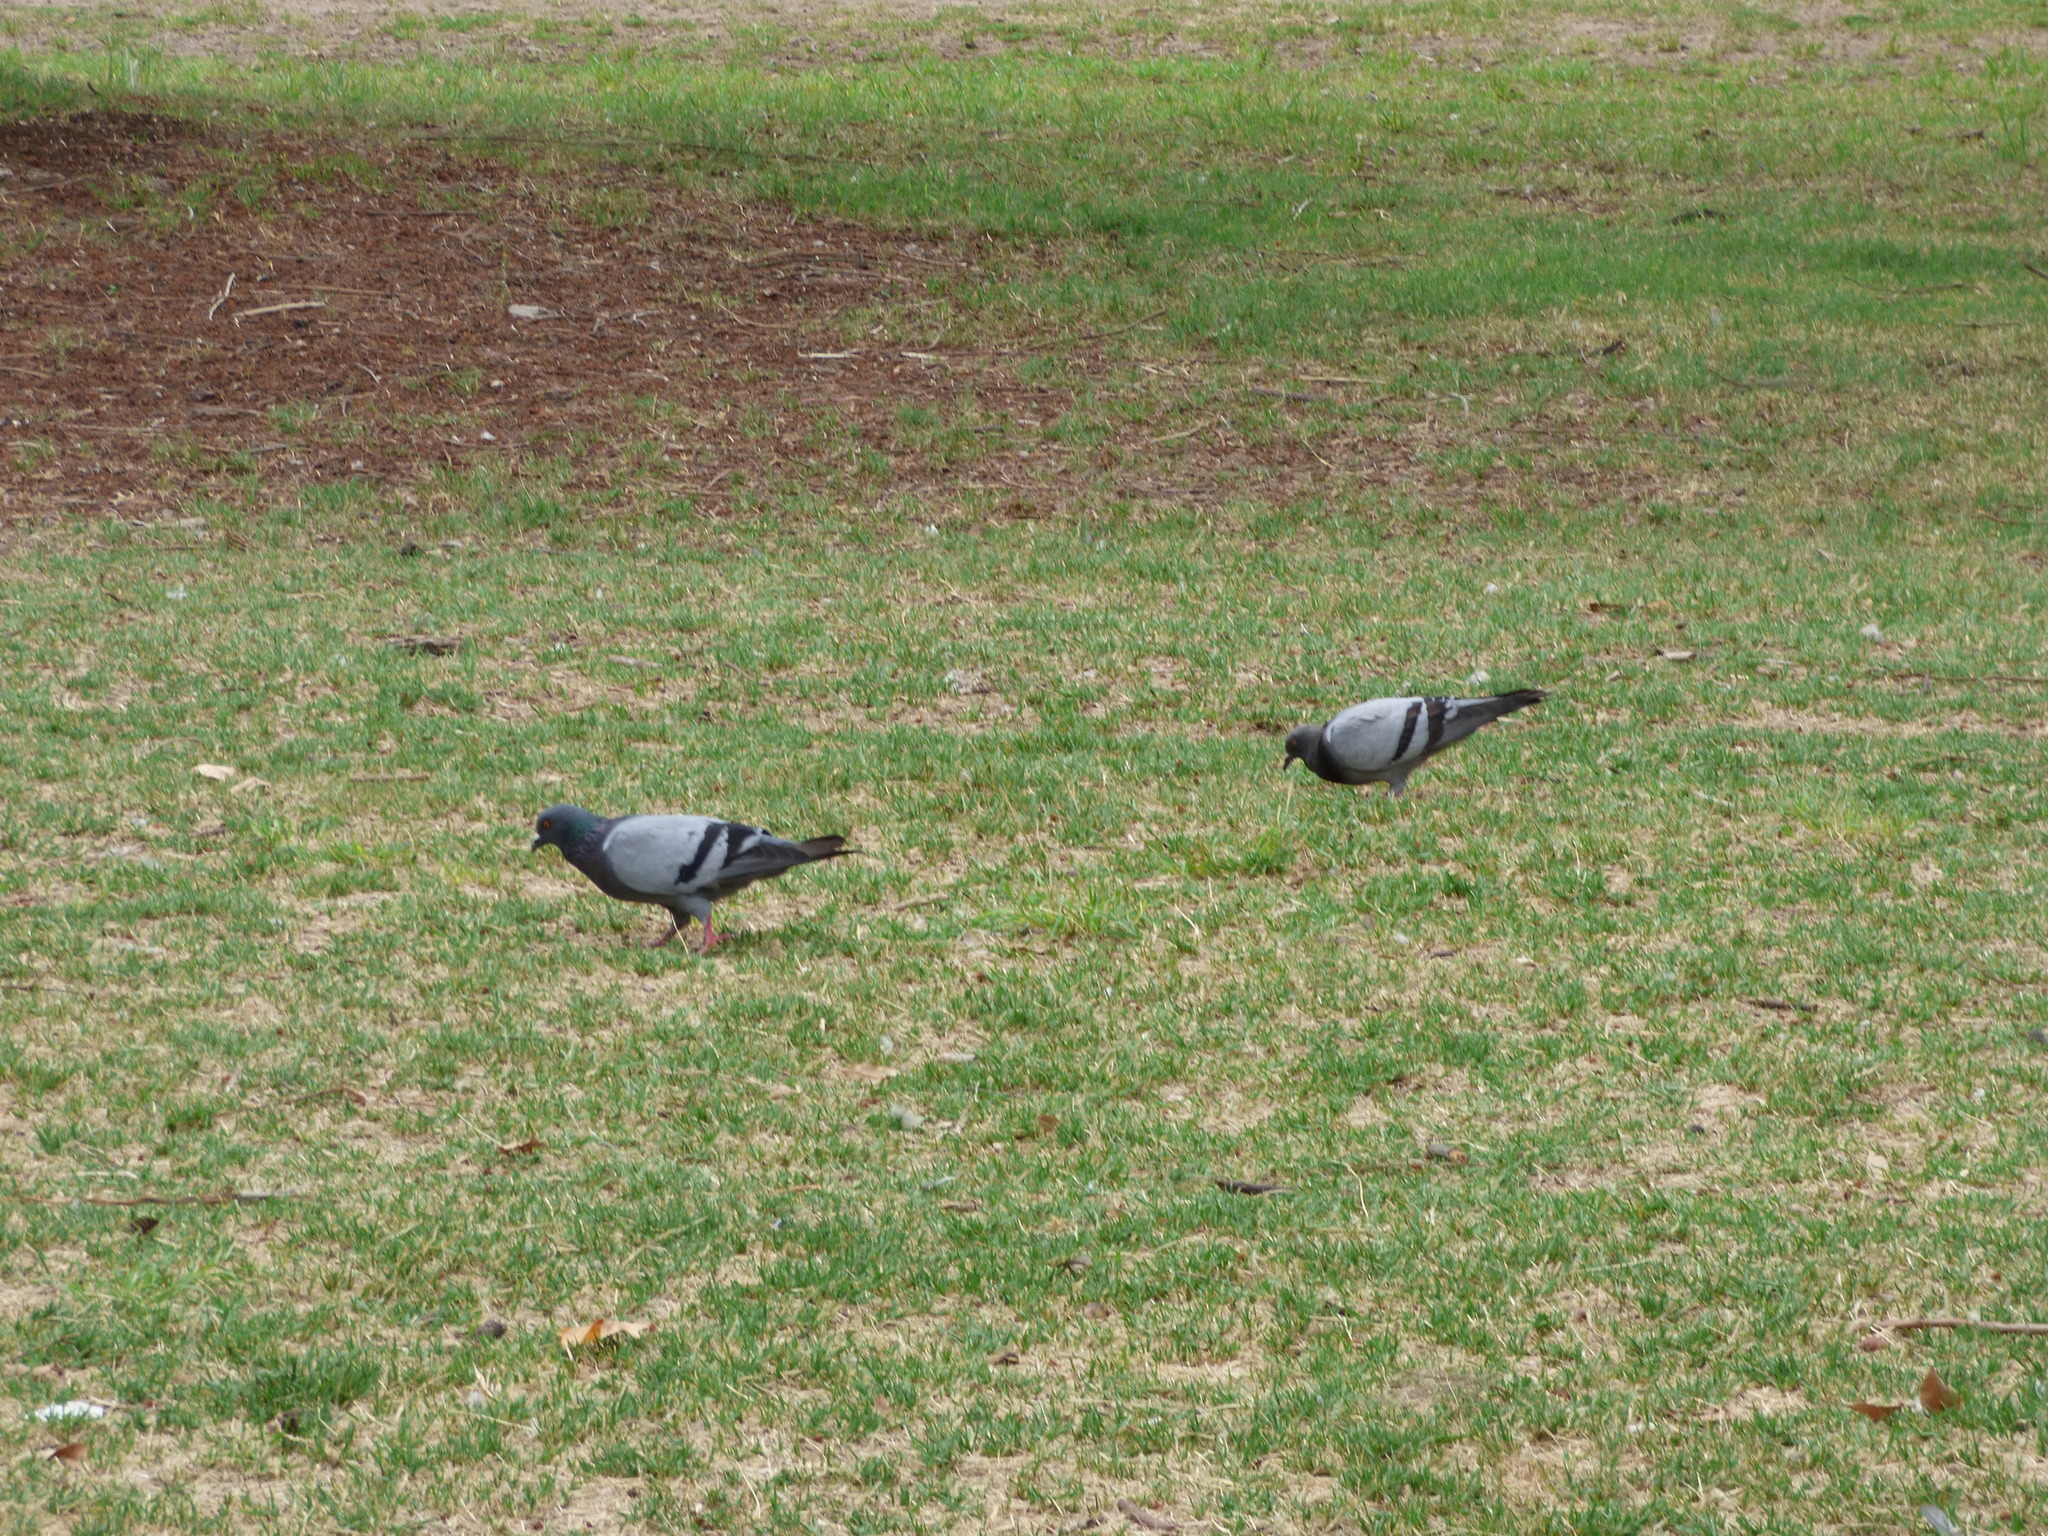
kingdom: Animalia
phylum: Chordata
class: Aves
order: Columbiformes
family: Columbidae
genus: Columba
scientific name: Columba livia
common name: Rock pigeon
